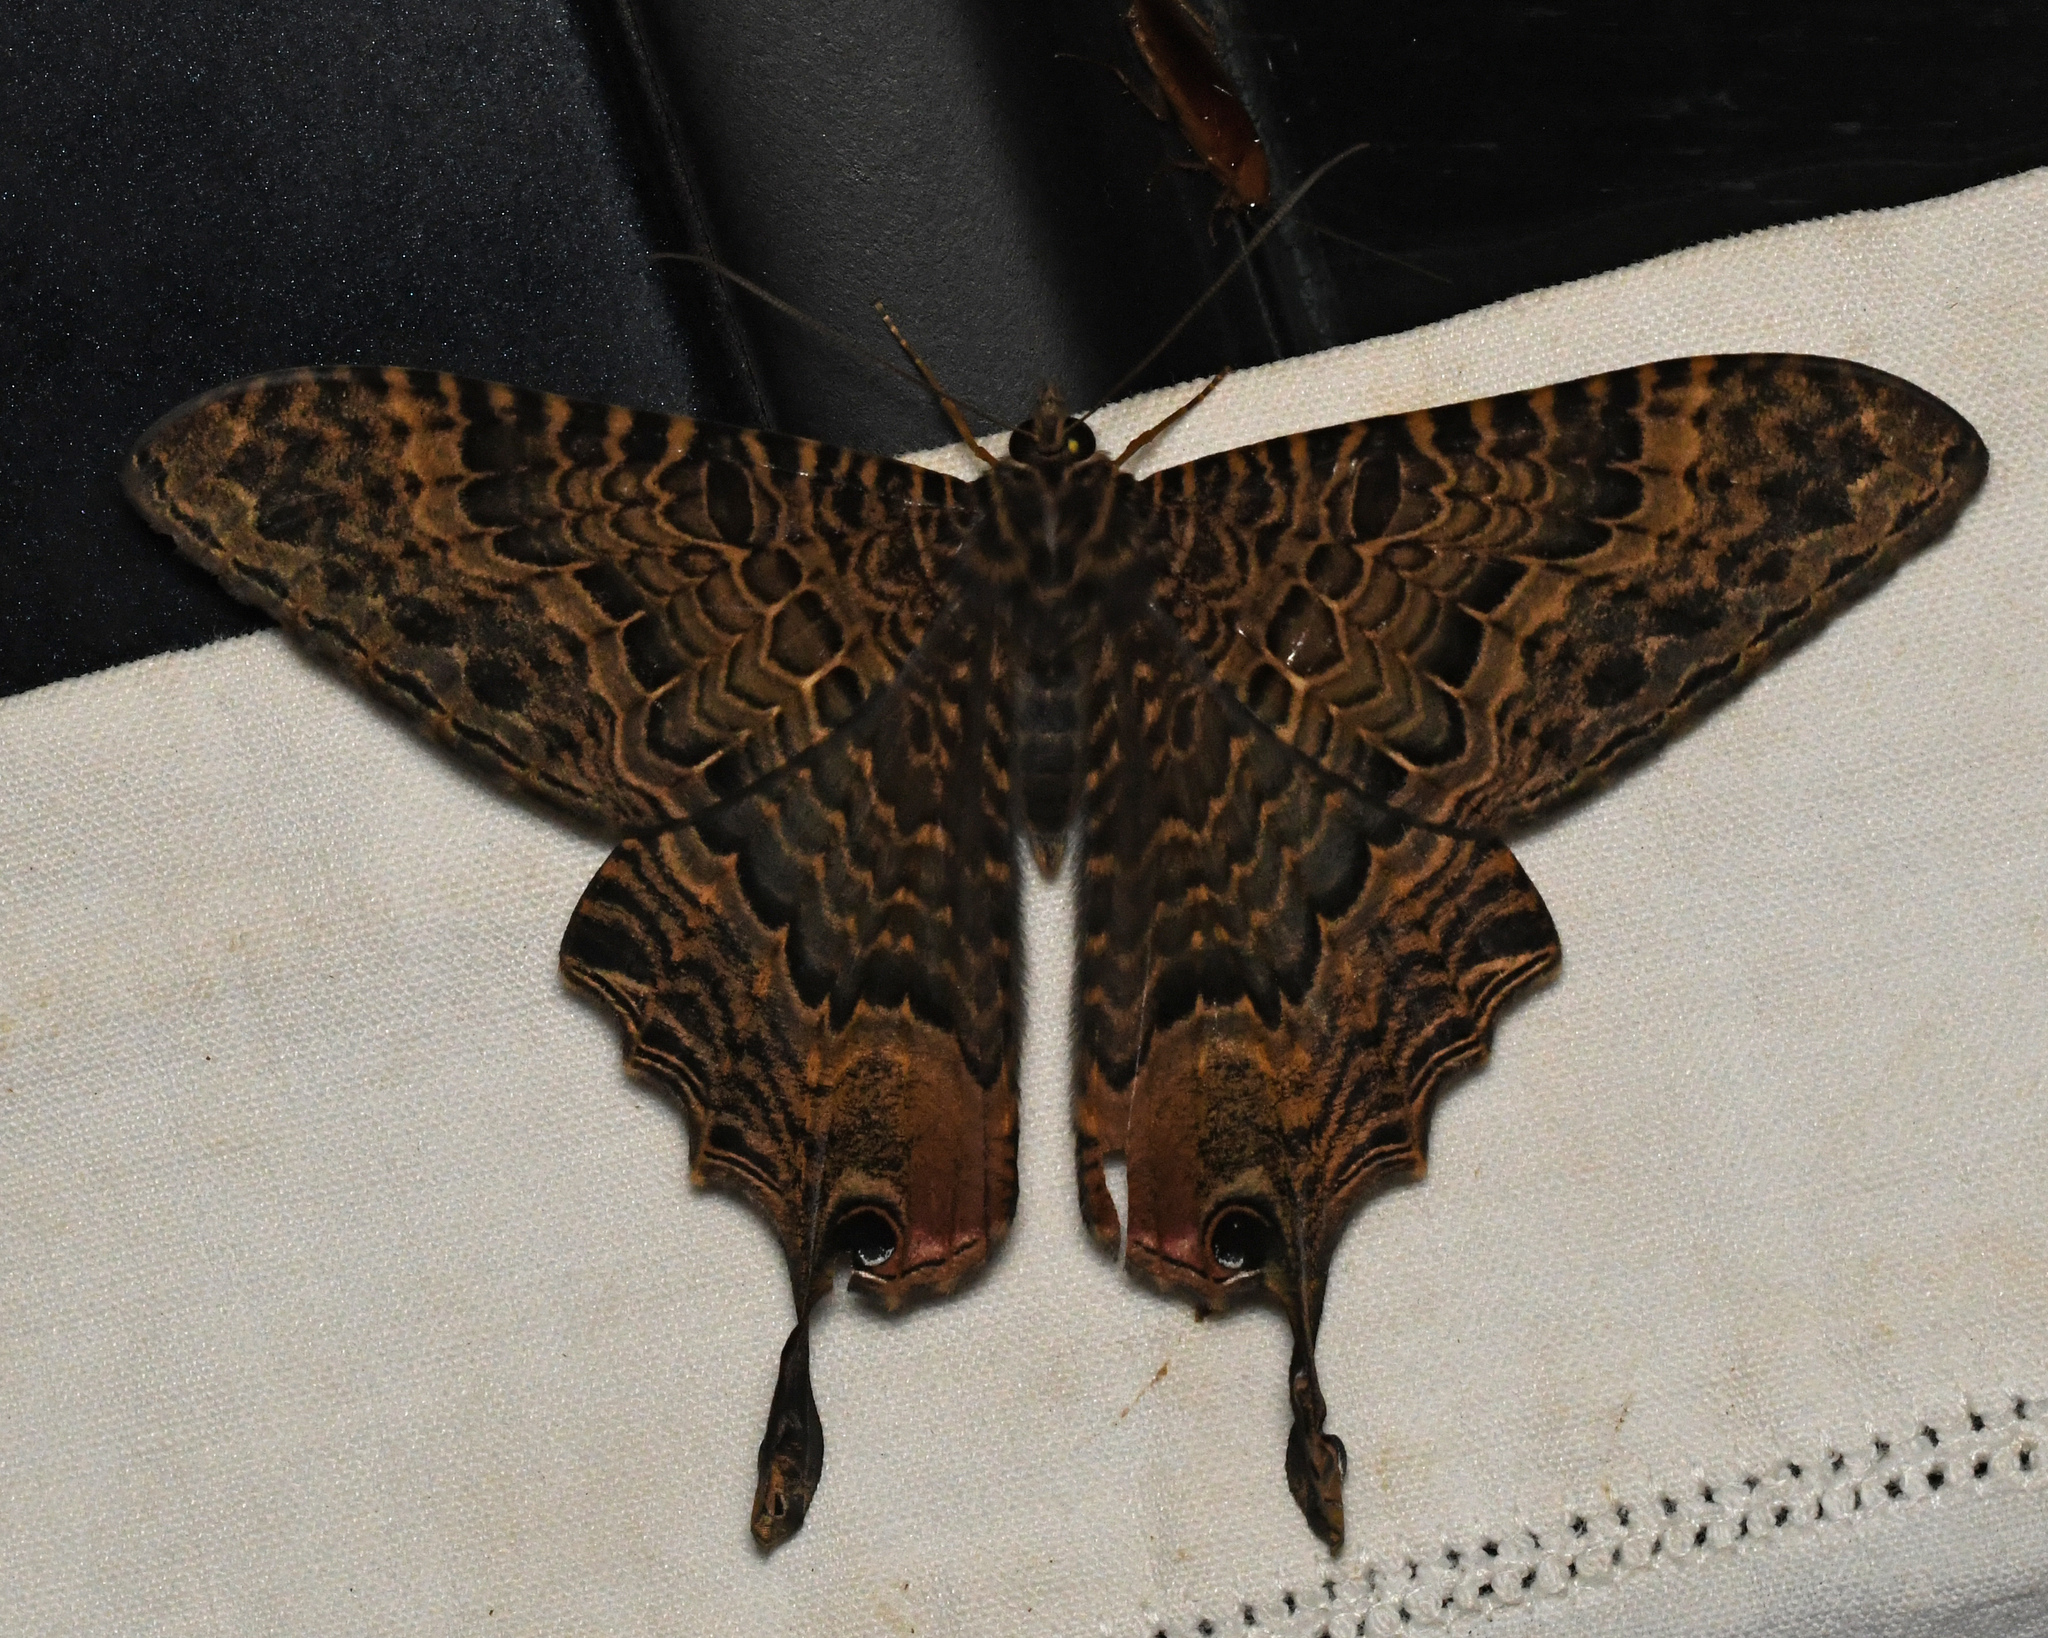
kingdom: Animalia
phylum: Arthropoda
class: Insecta
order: Lepidoptera
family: Sematuridae
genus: Nothus
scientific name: Nothus
